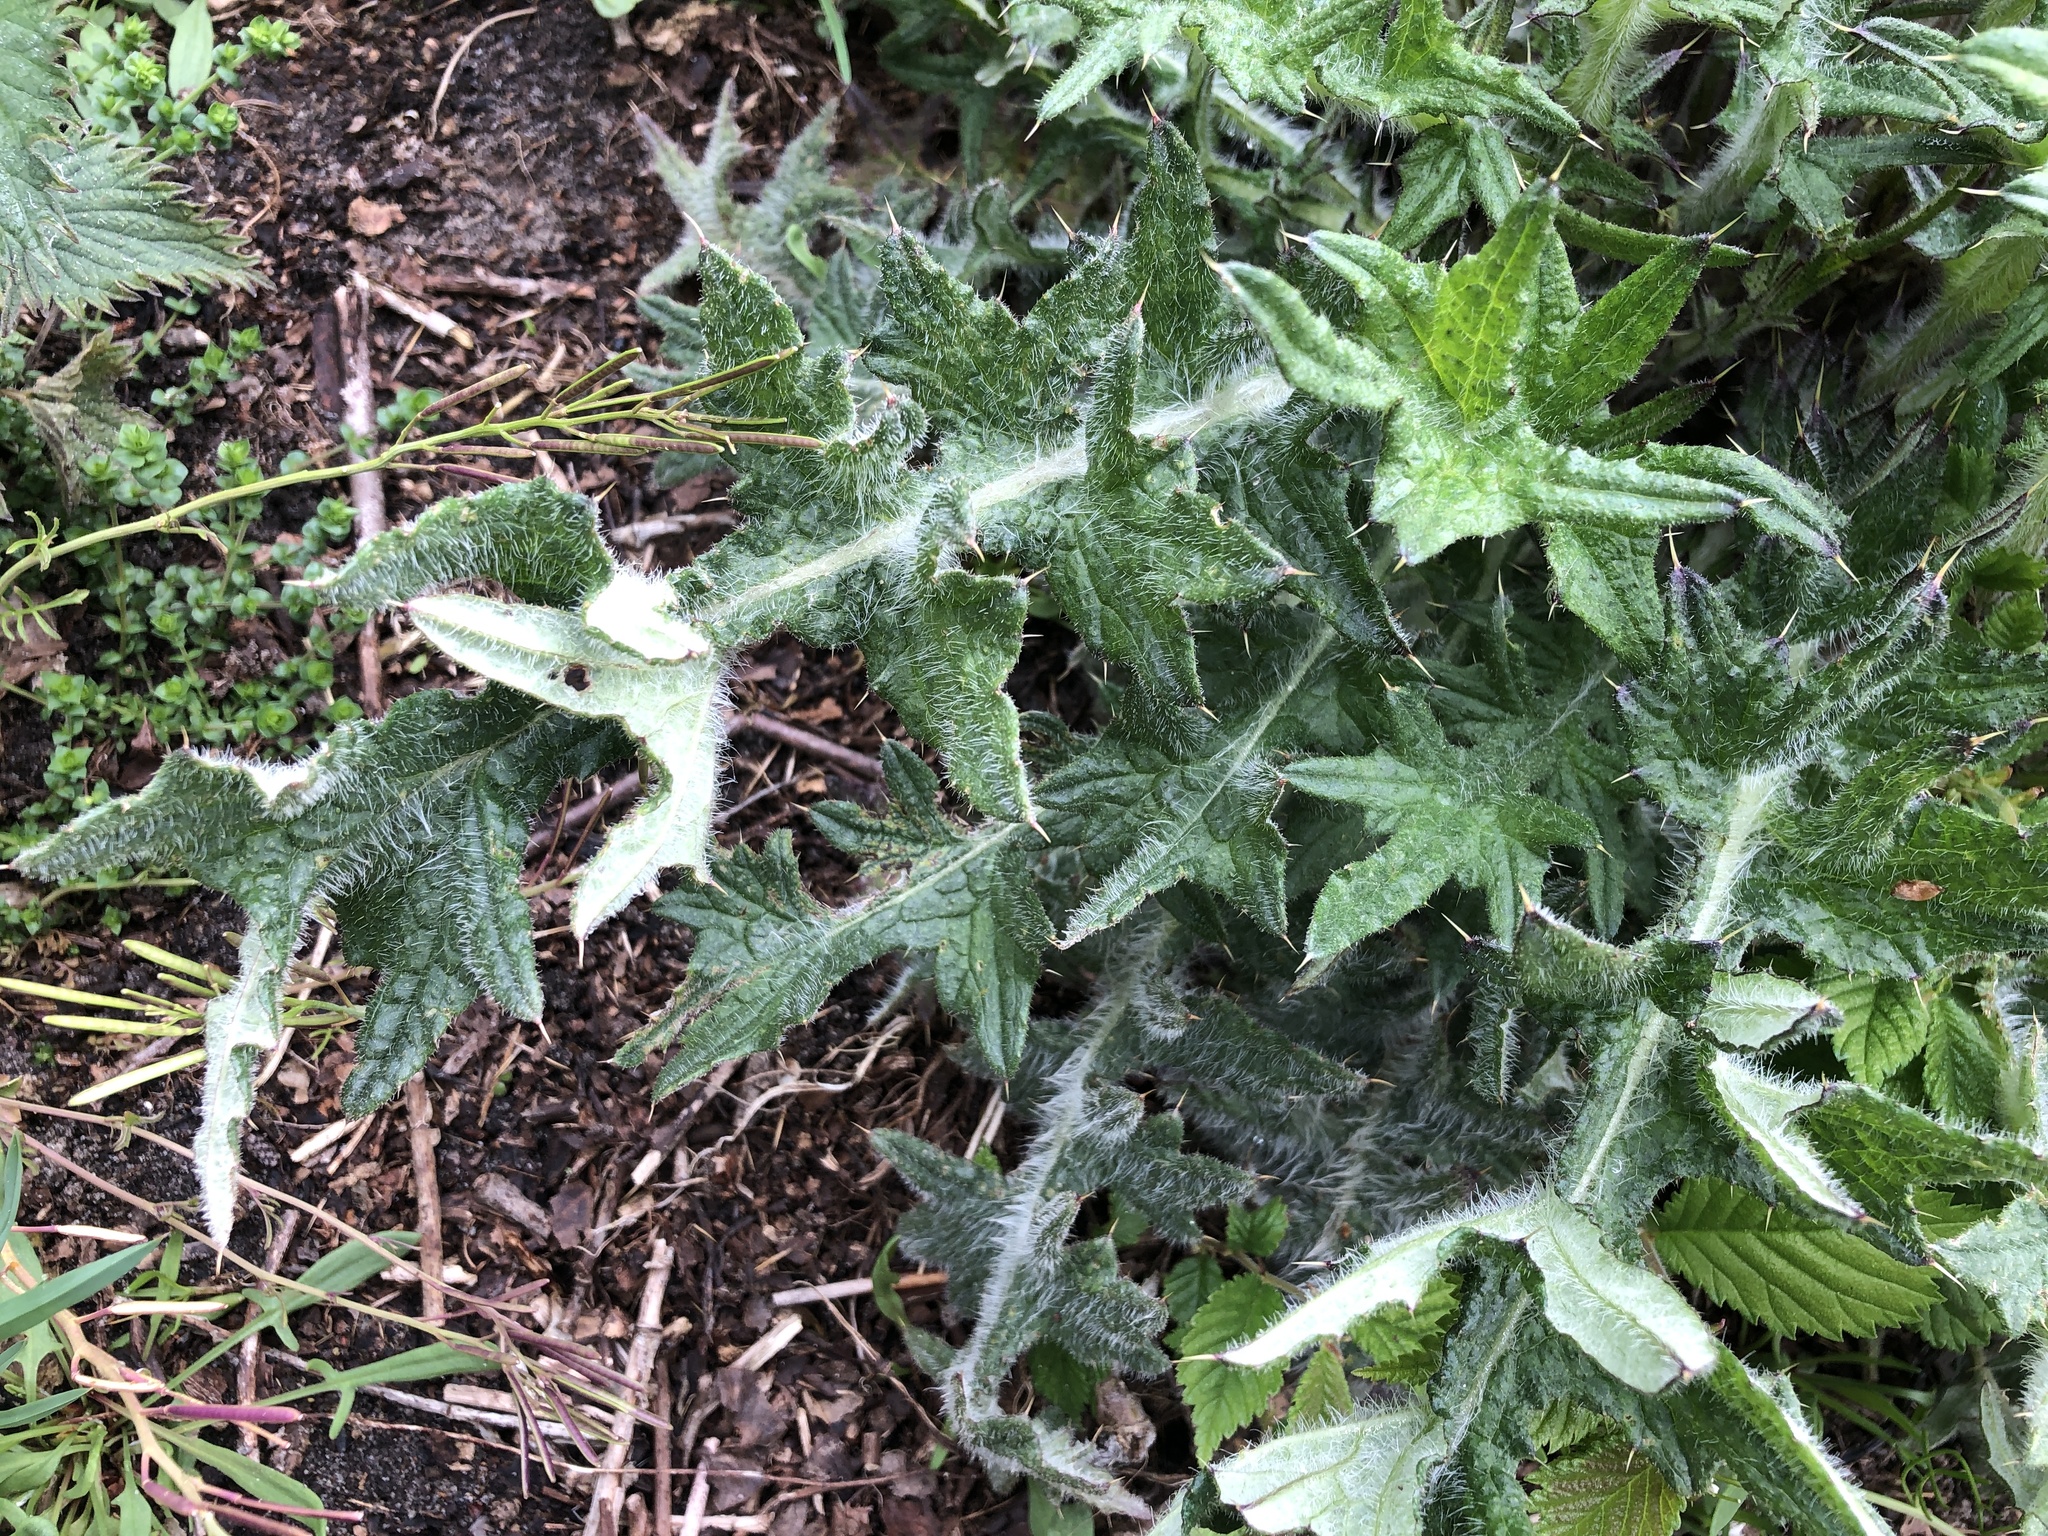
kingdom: Plantae
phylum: Tracheophyta
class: Magnoliopsida
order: Asterales
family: Asteraceae
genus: Cirsium
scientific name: Cirsium vulgare
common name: Bull thistle
